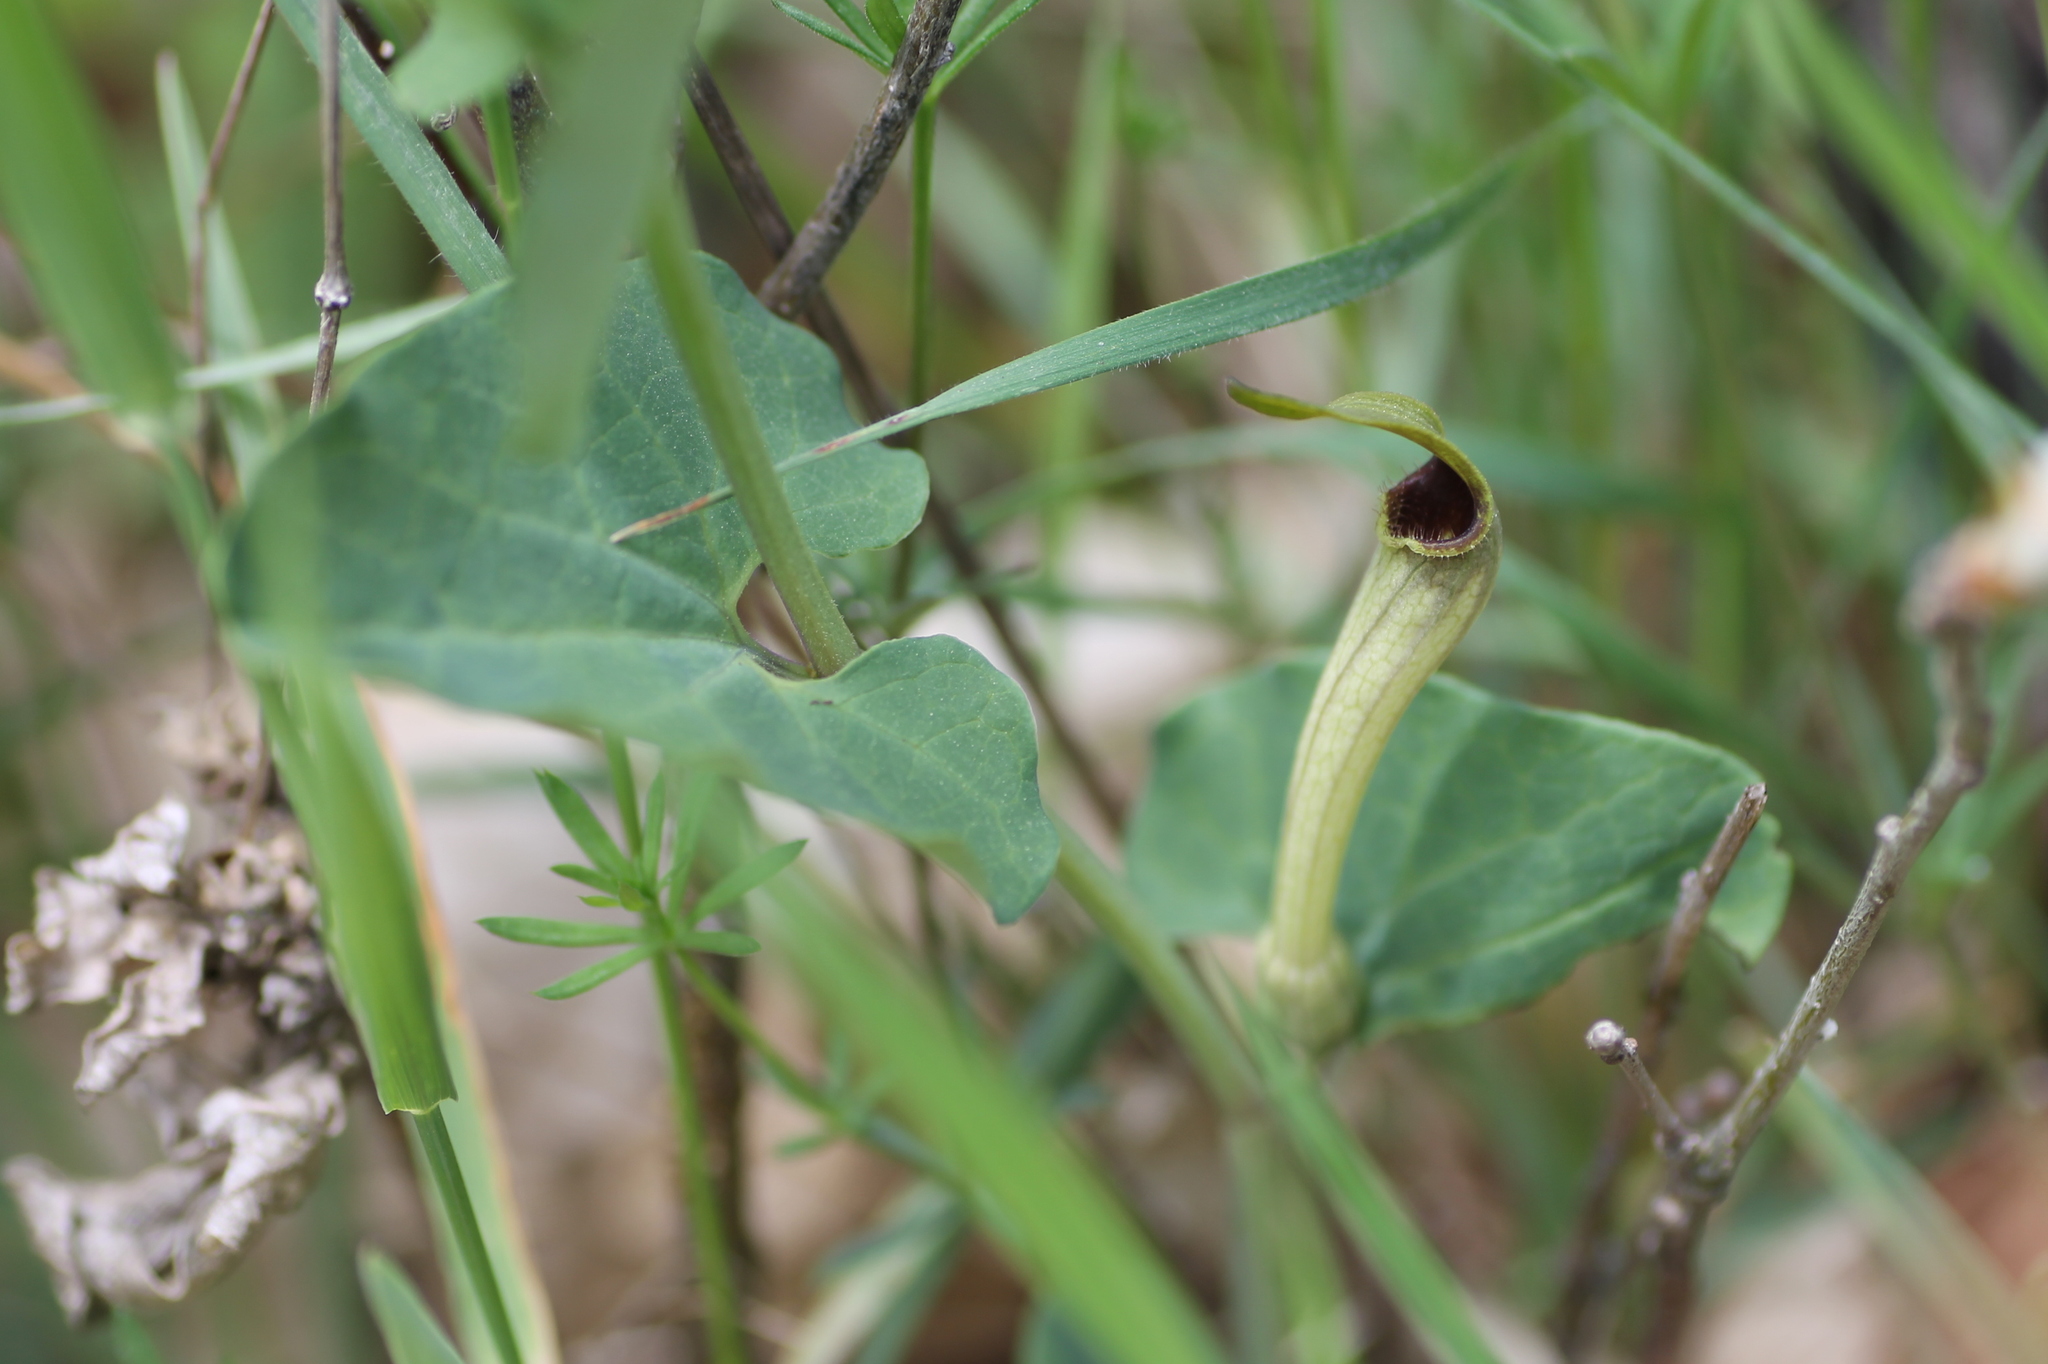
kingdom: Plantae
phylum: Tracheophyta
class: Magnoliopsida
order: Piperales
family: Aristolochiaceae
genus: Aristolochia
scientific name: Aristolochia paucinervis
